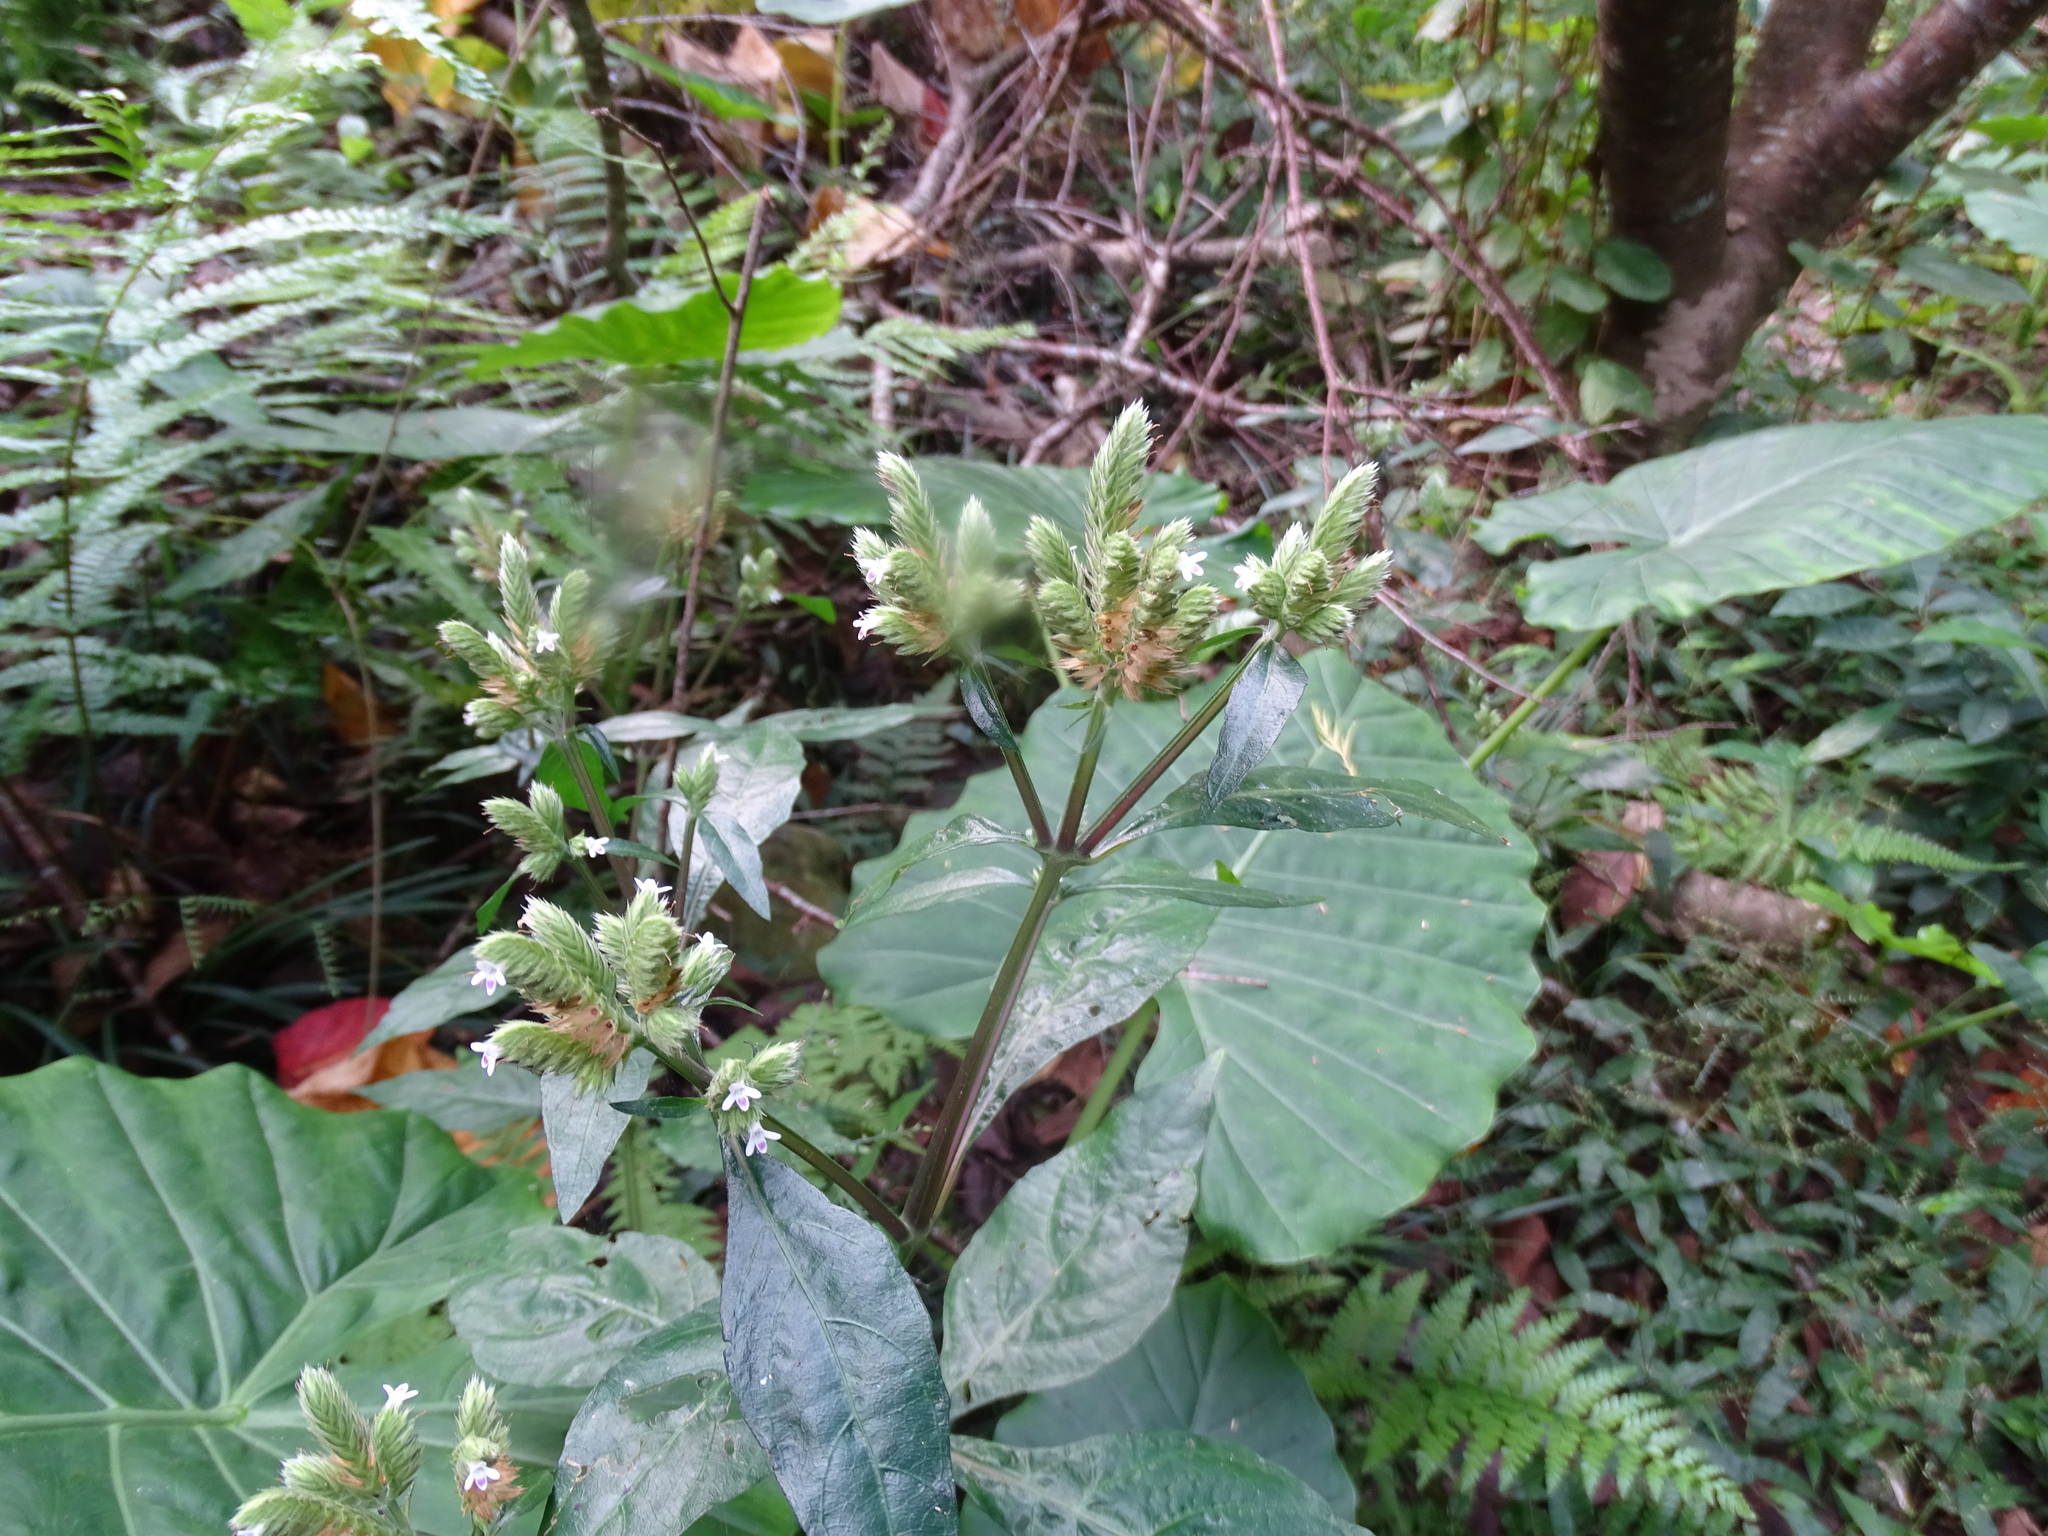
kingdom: Plantae
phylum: Tracheophyta
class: Magnoliopsida
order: Lamiales
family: Acanthaceae
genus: Lepidagathis
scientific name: Lepidagathis formosensis
